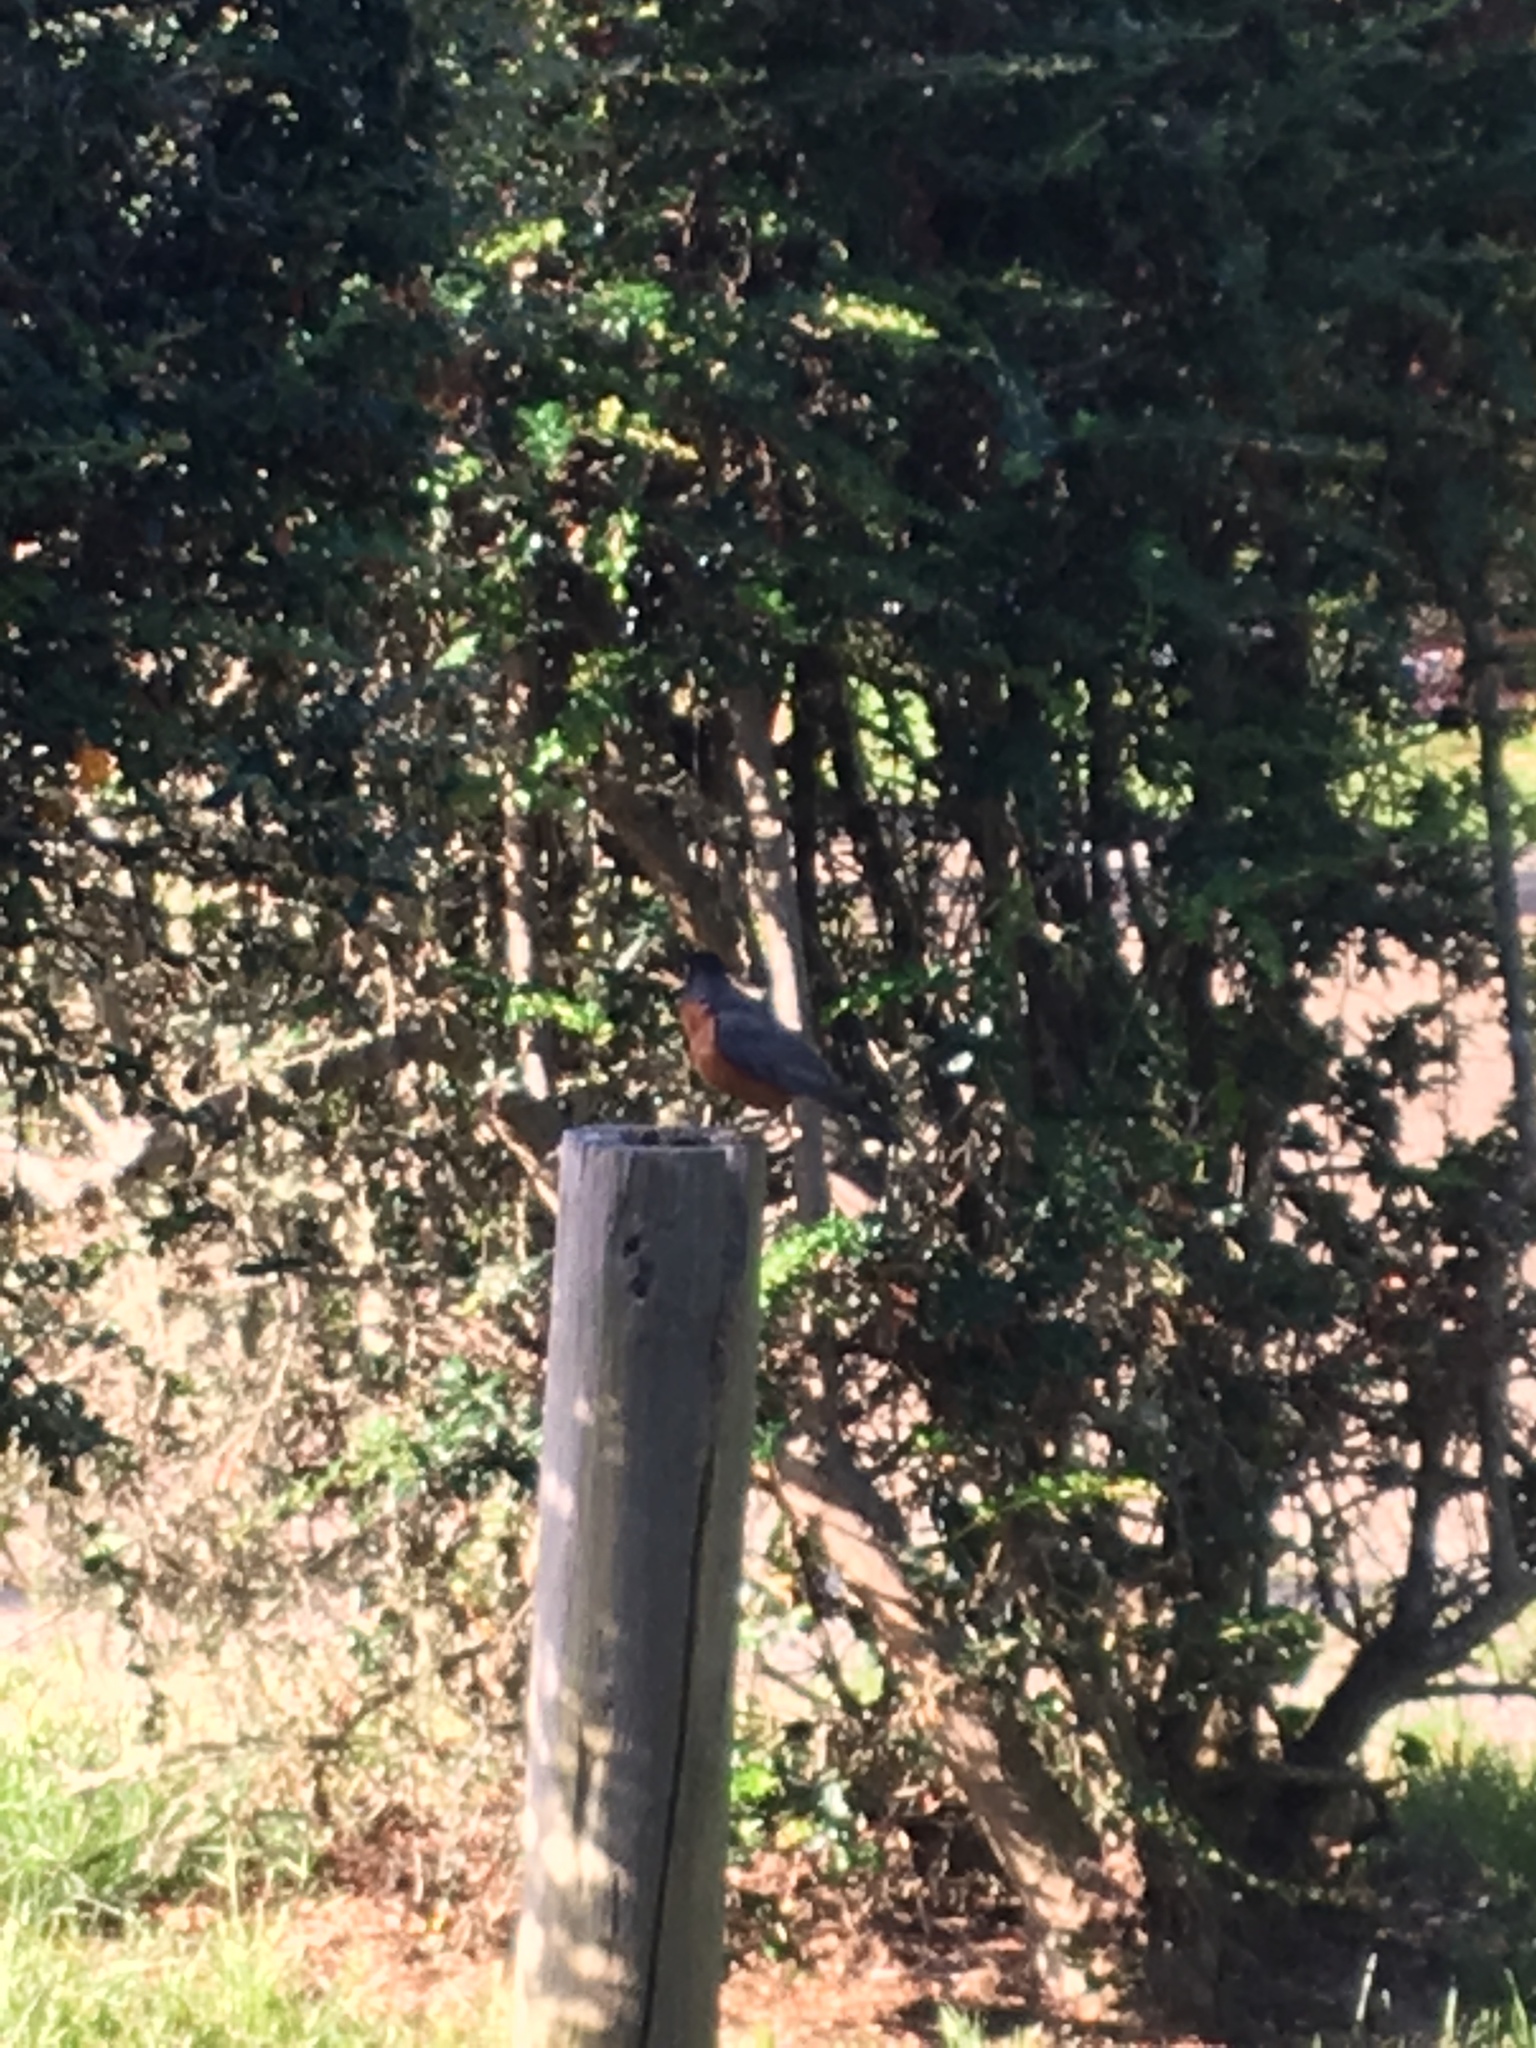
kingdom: Animalia
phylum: Chordata
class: Aves
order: Passeriformes
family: Turdidae
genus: Turdus
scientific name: Turdus migratorius
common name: American robin
